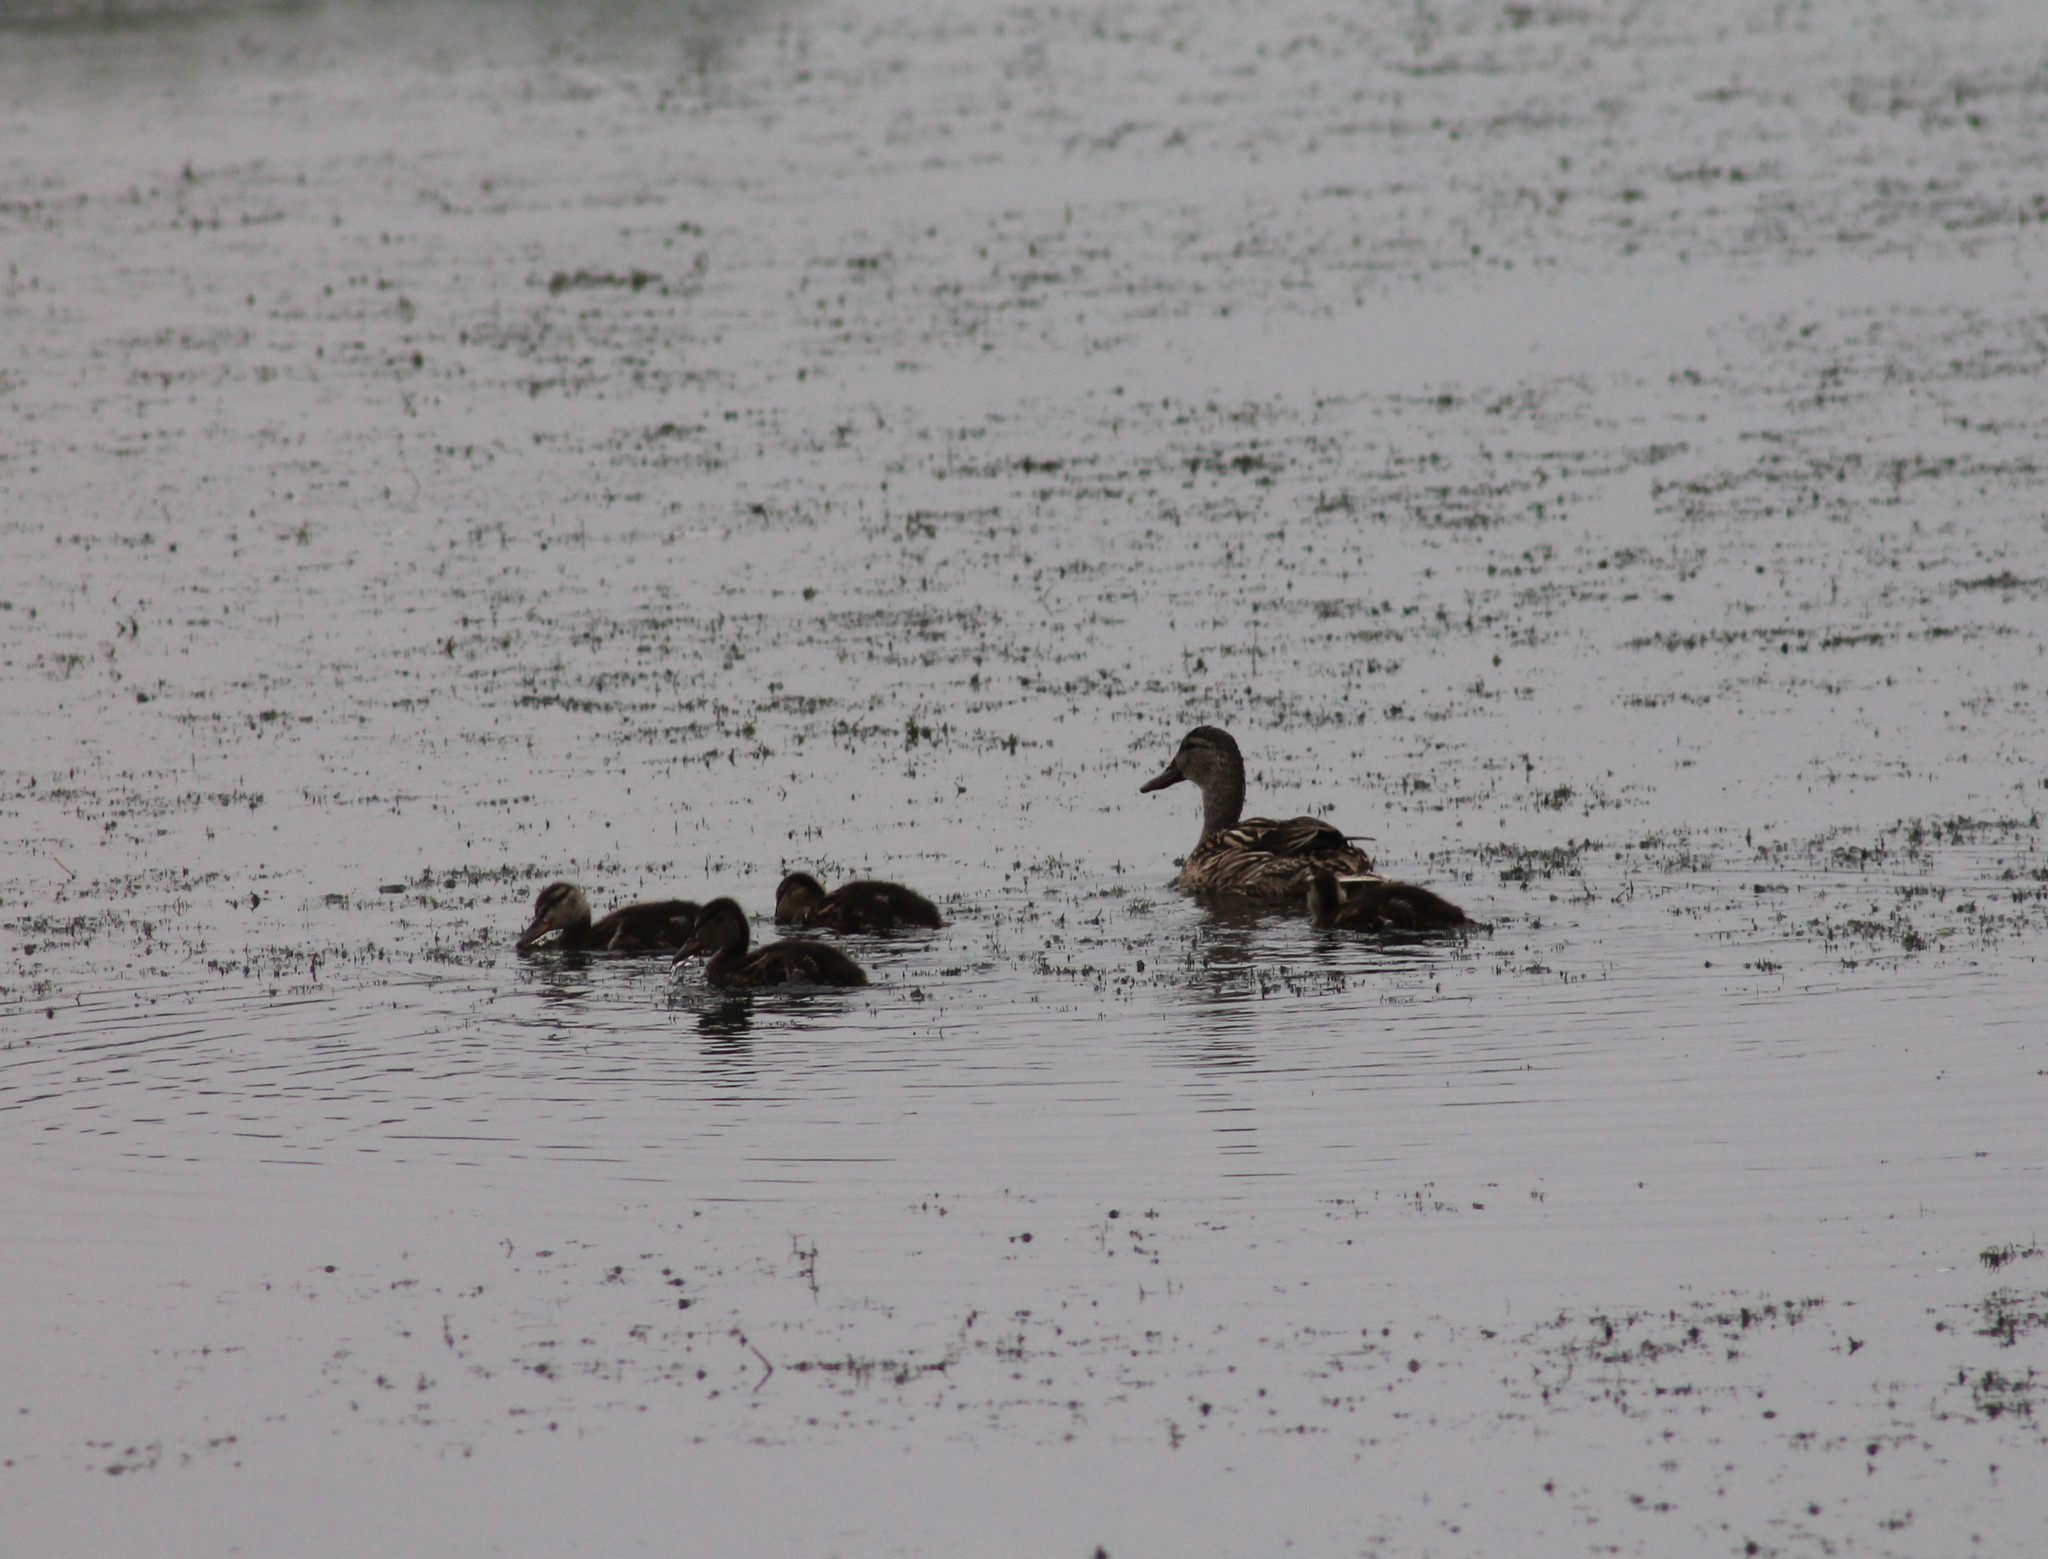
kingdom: Animalia
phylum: Chordata
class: Aves
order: Anseriformes
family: Anatidae
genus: Anas
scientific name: Anas platyrhynchos
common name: Mallard
